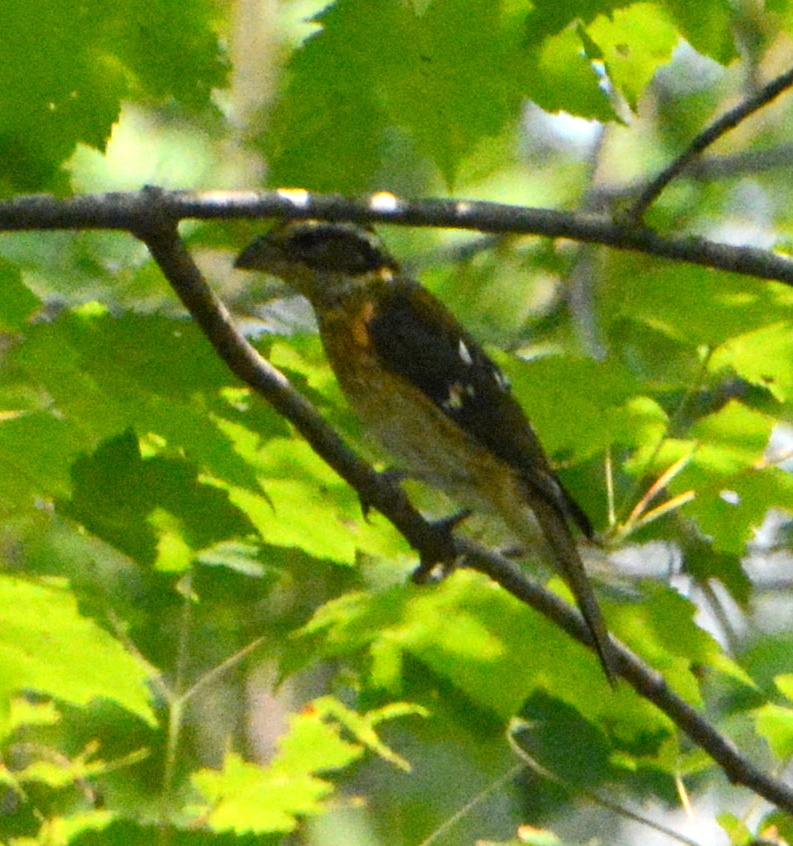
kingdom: Animalia
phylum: Chordata
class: Aves
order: Passeriformes
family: Cardinalidae
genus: Pheucticus
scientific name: Pheucticus ludovicianus
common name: Rose-breasted grosbeak
